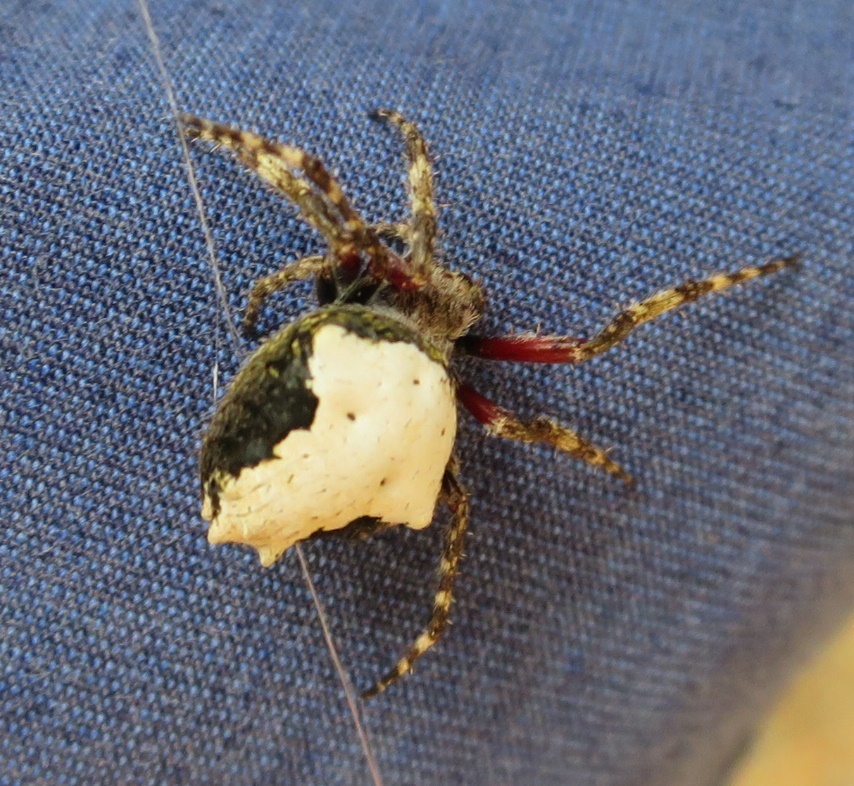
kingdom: Animalia
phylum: Arthropoda
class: Arachnida
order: Araneae
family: Araneidae
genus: Eriophora
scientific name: Eriophora pustulosa
